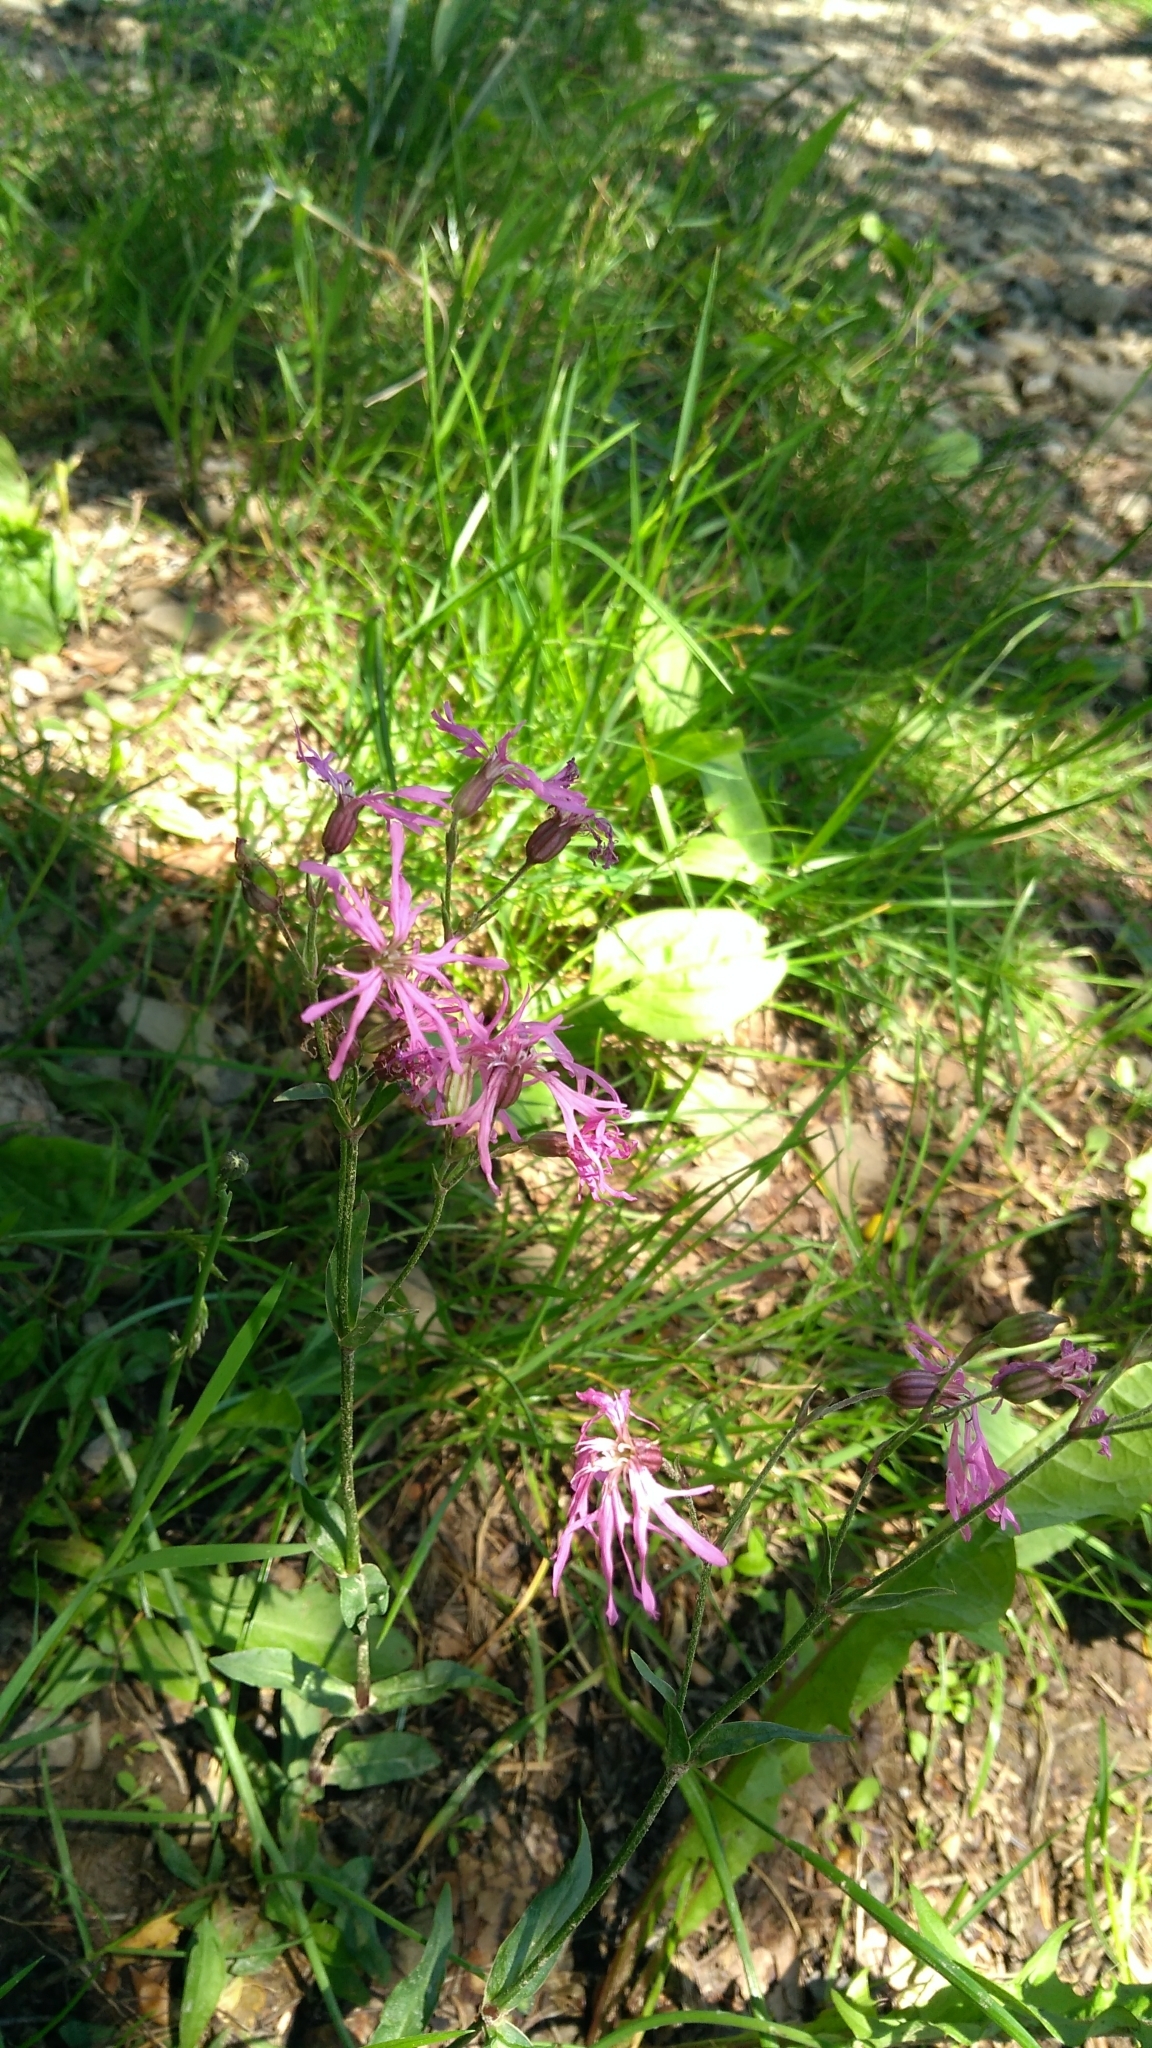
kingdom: Plantae
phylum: Tracheophyta
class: Magnoliopsida
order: Caryophyllales
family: Caryophyllaceae
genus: Silene
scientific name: Silene flos-cuculi
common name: Ragged-robin
